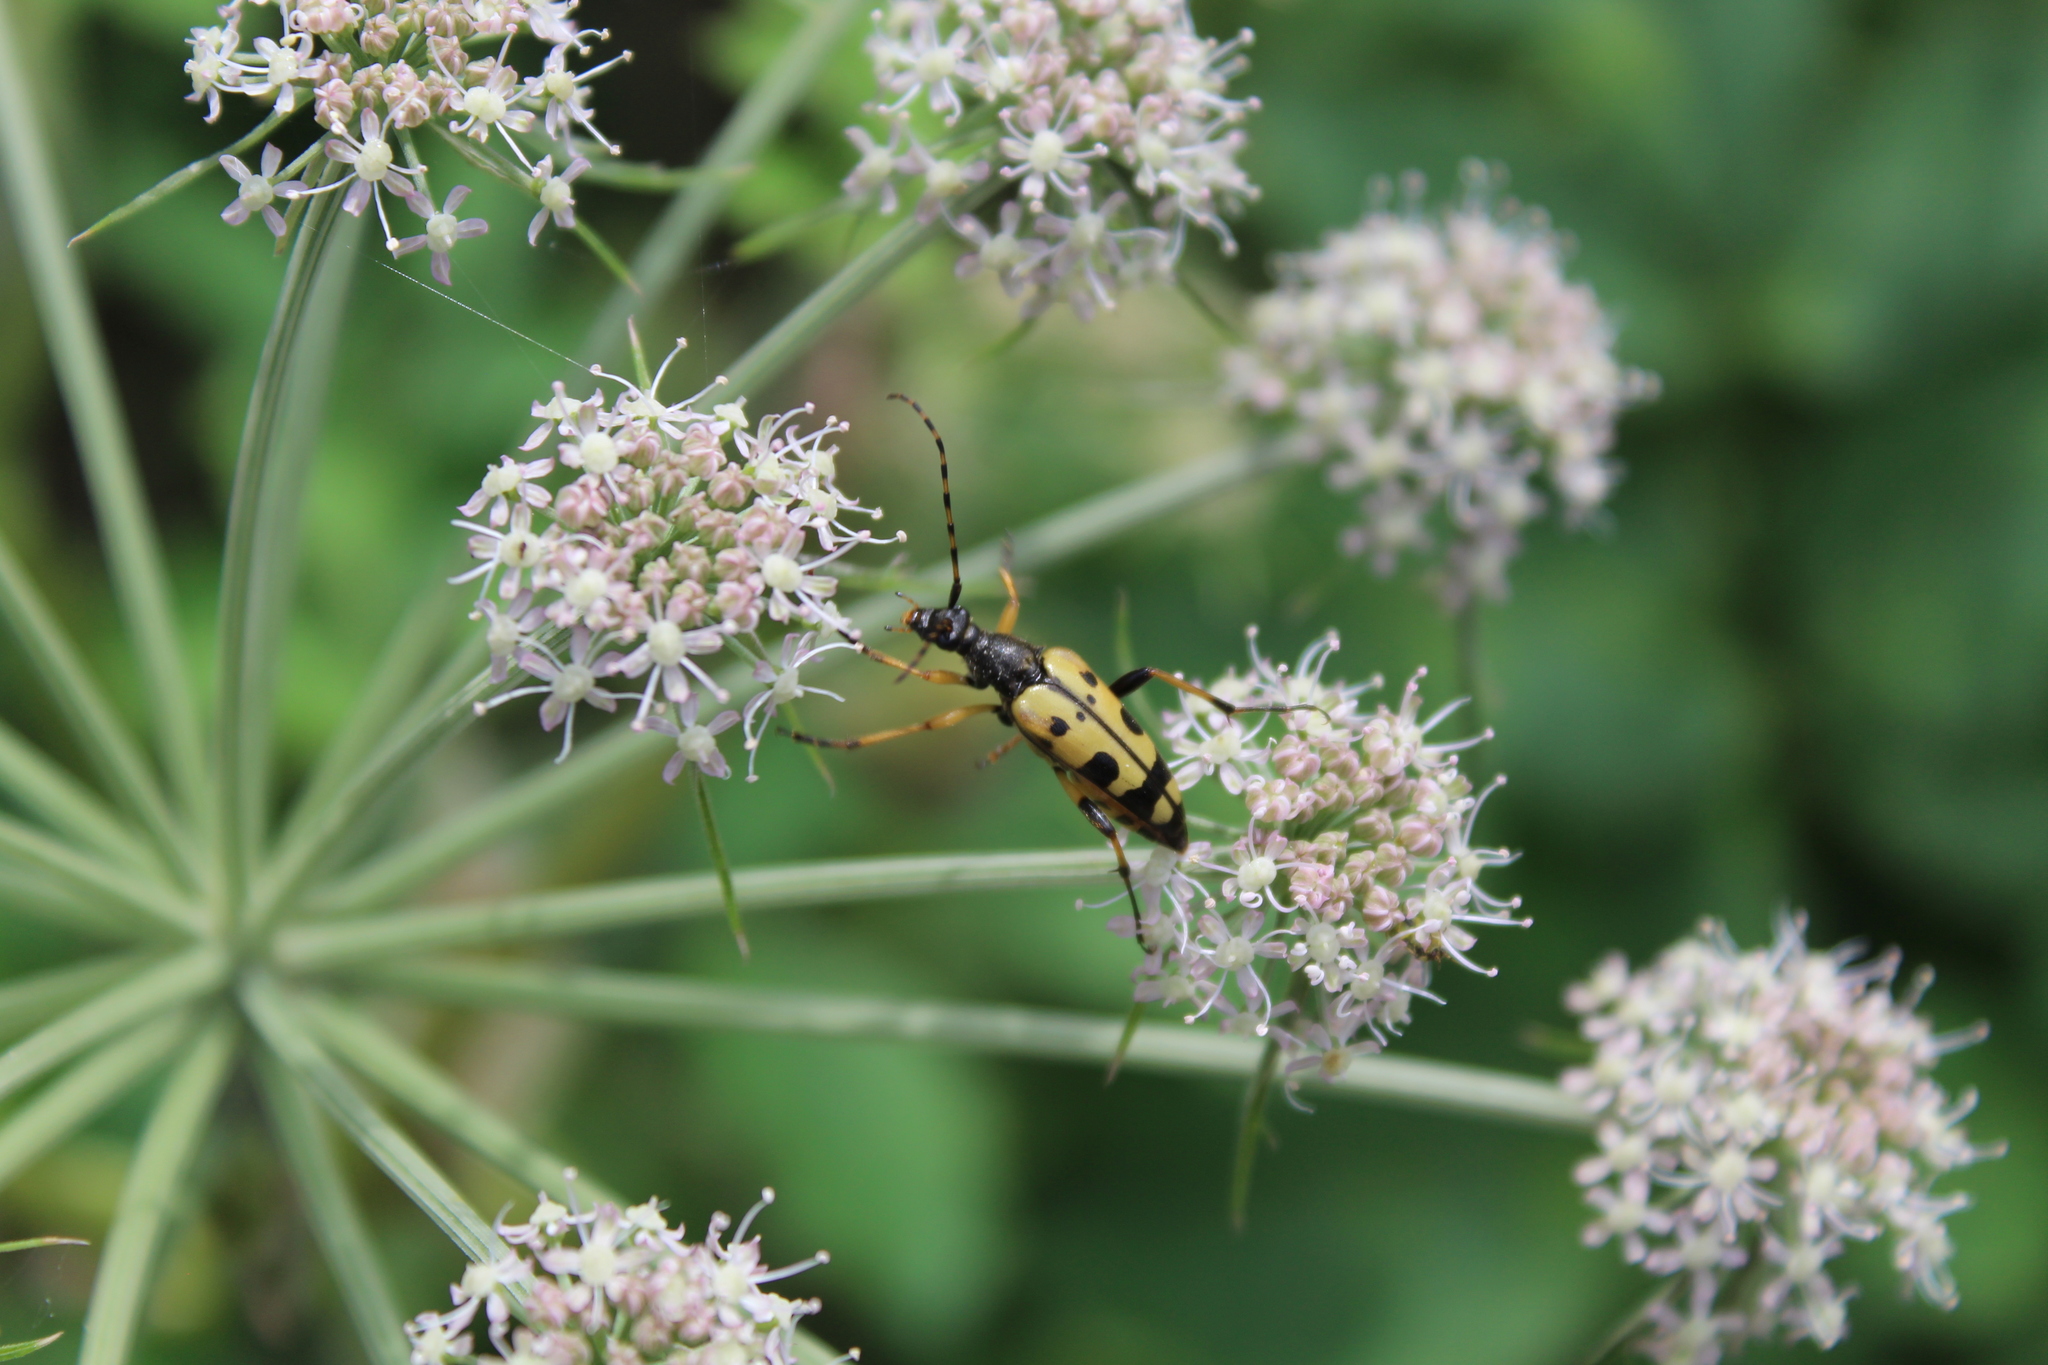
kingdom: Animalia
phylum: Arthropoda
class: Insecta
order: Coleoptera
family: Cerambycidae
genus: Rutpela
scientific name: Rutpela maculata
